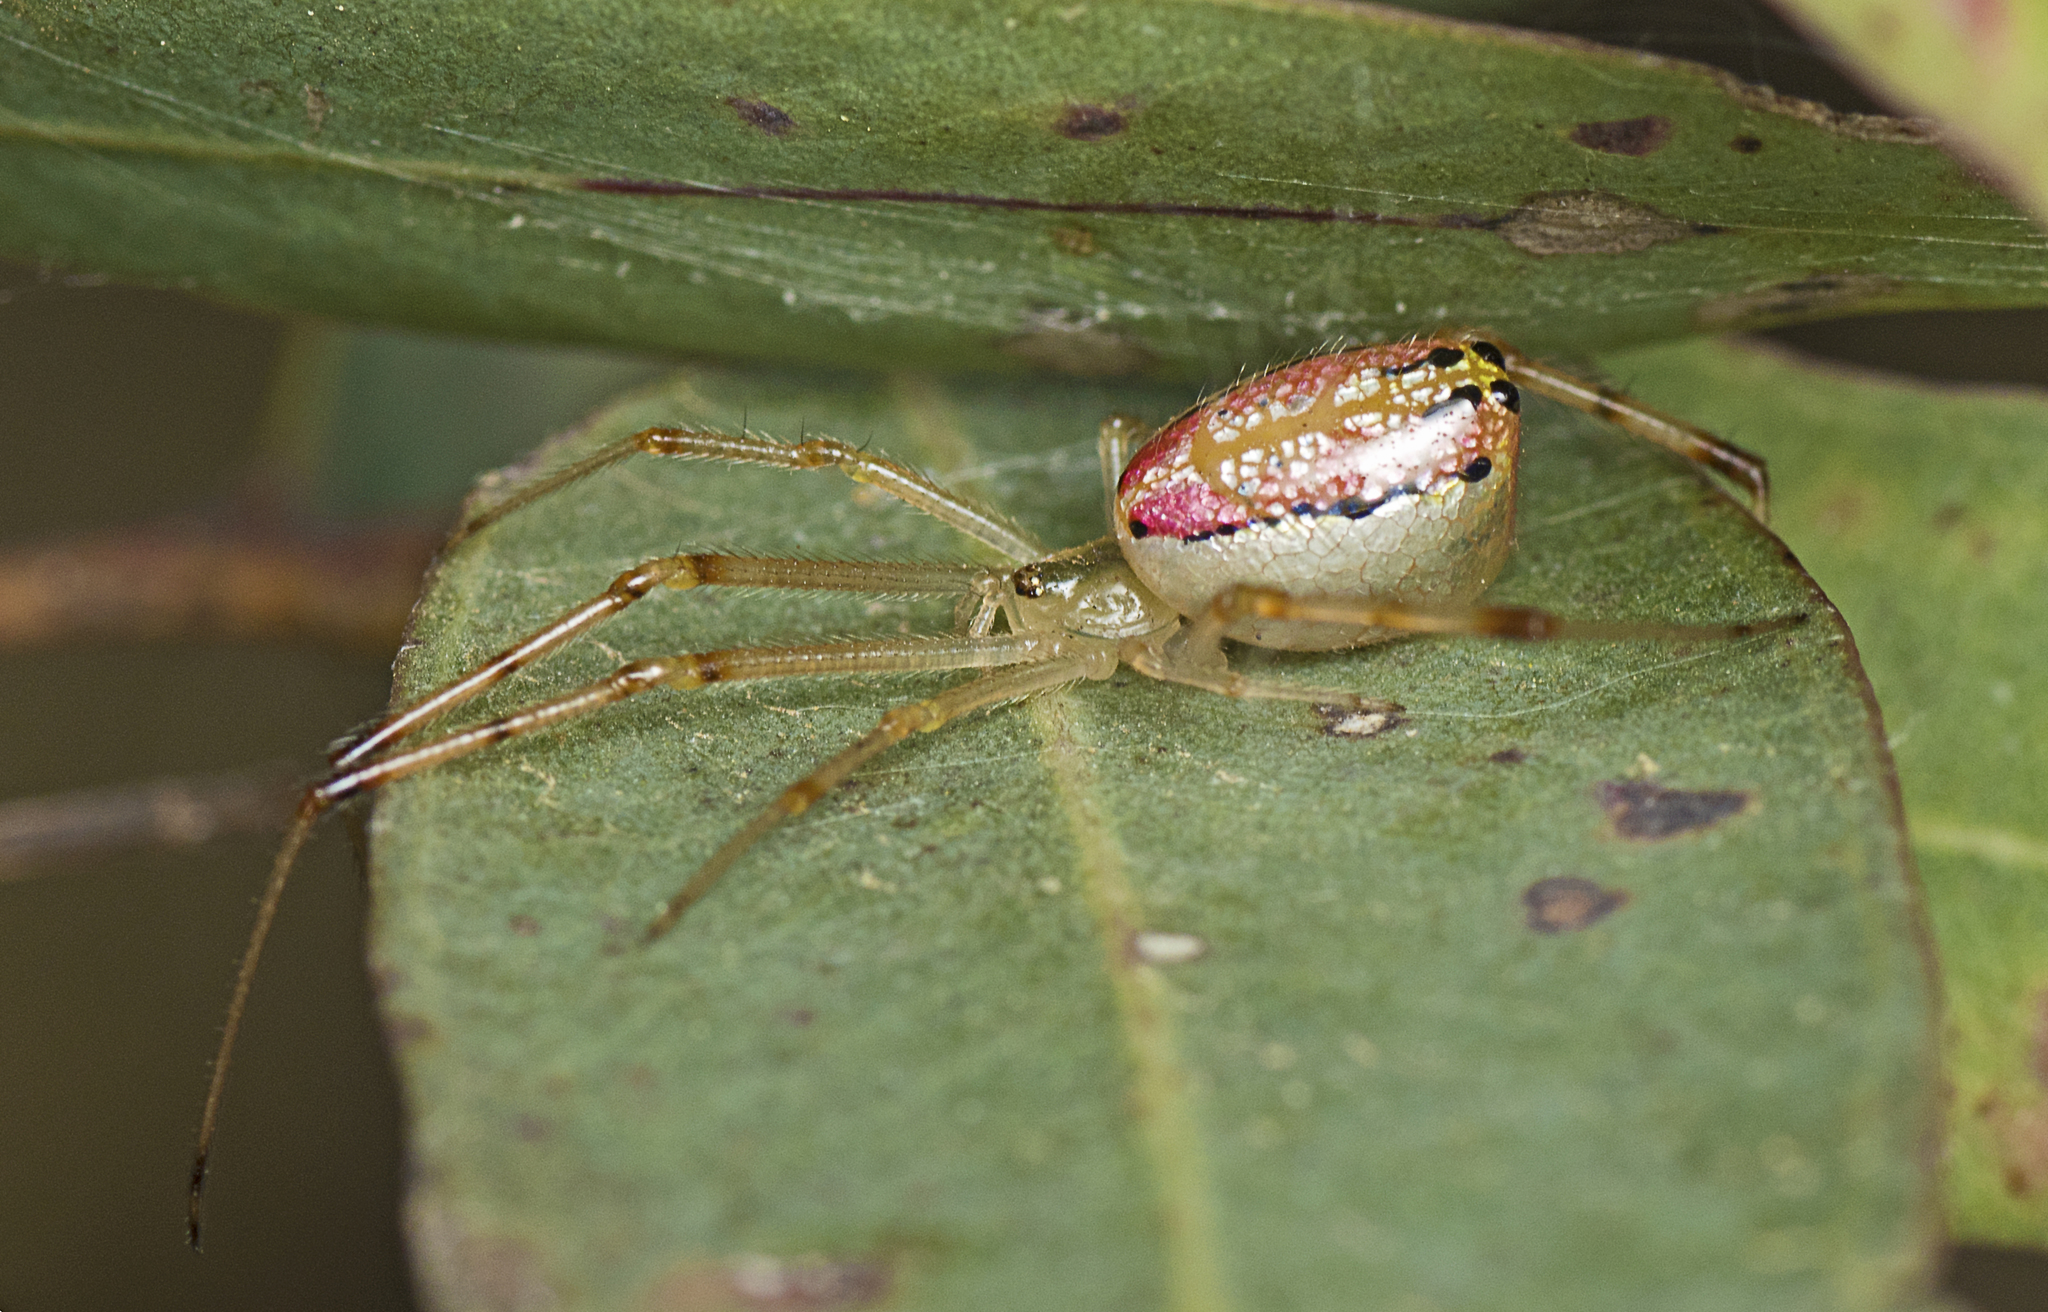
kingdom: Animalia
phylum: Arthropoda
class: Arachnida
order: Araneae
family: Theridiidae
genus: Thwaitesia
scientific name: Thwaitesia nigronodosa
